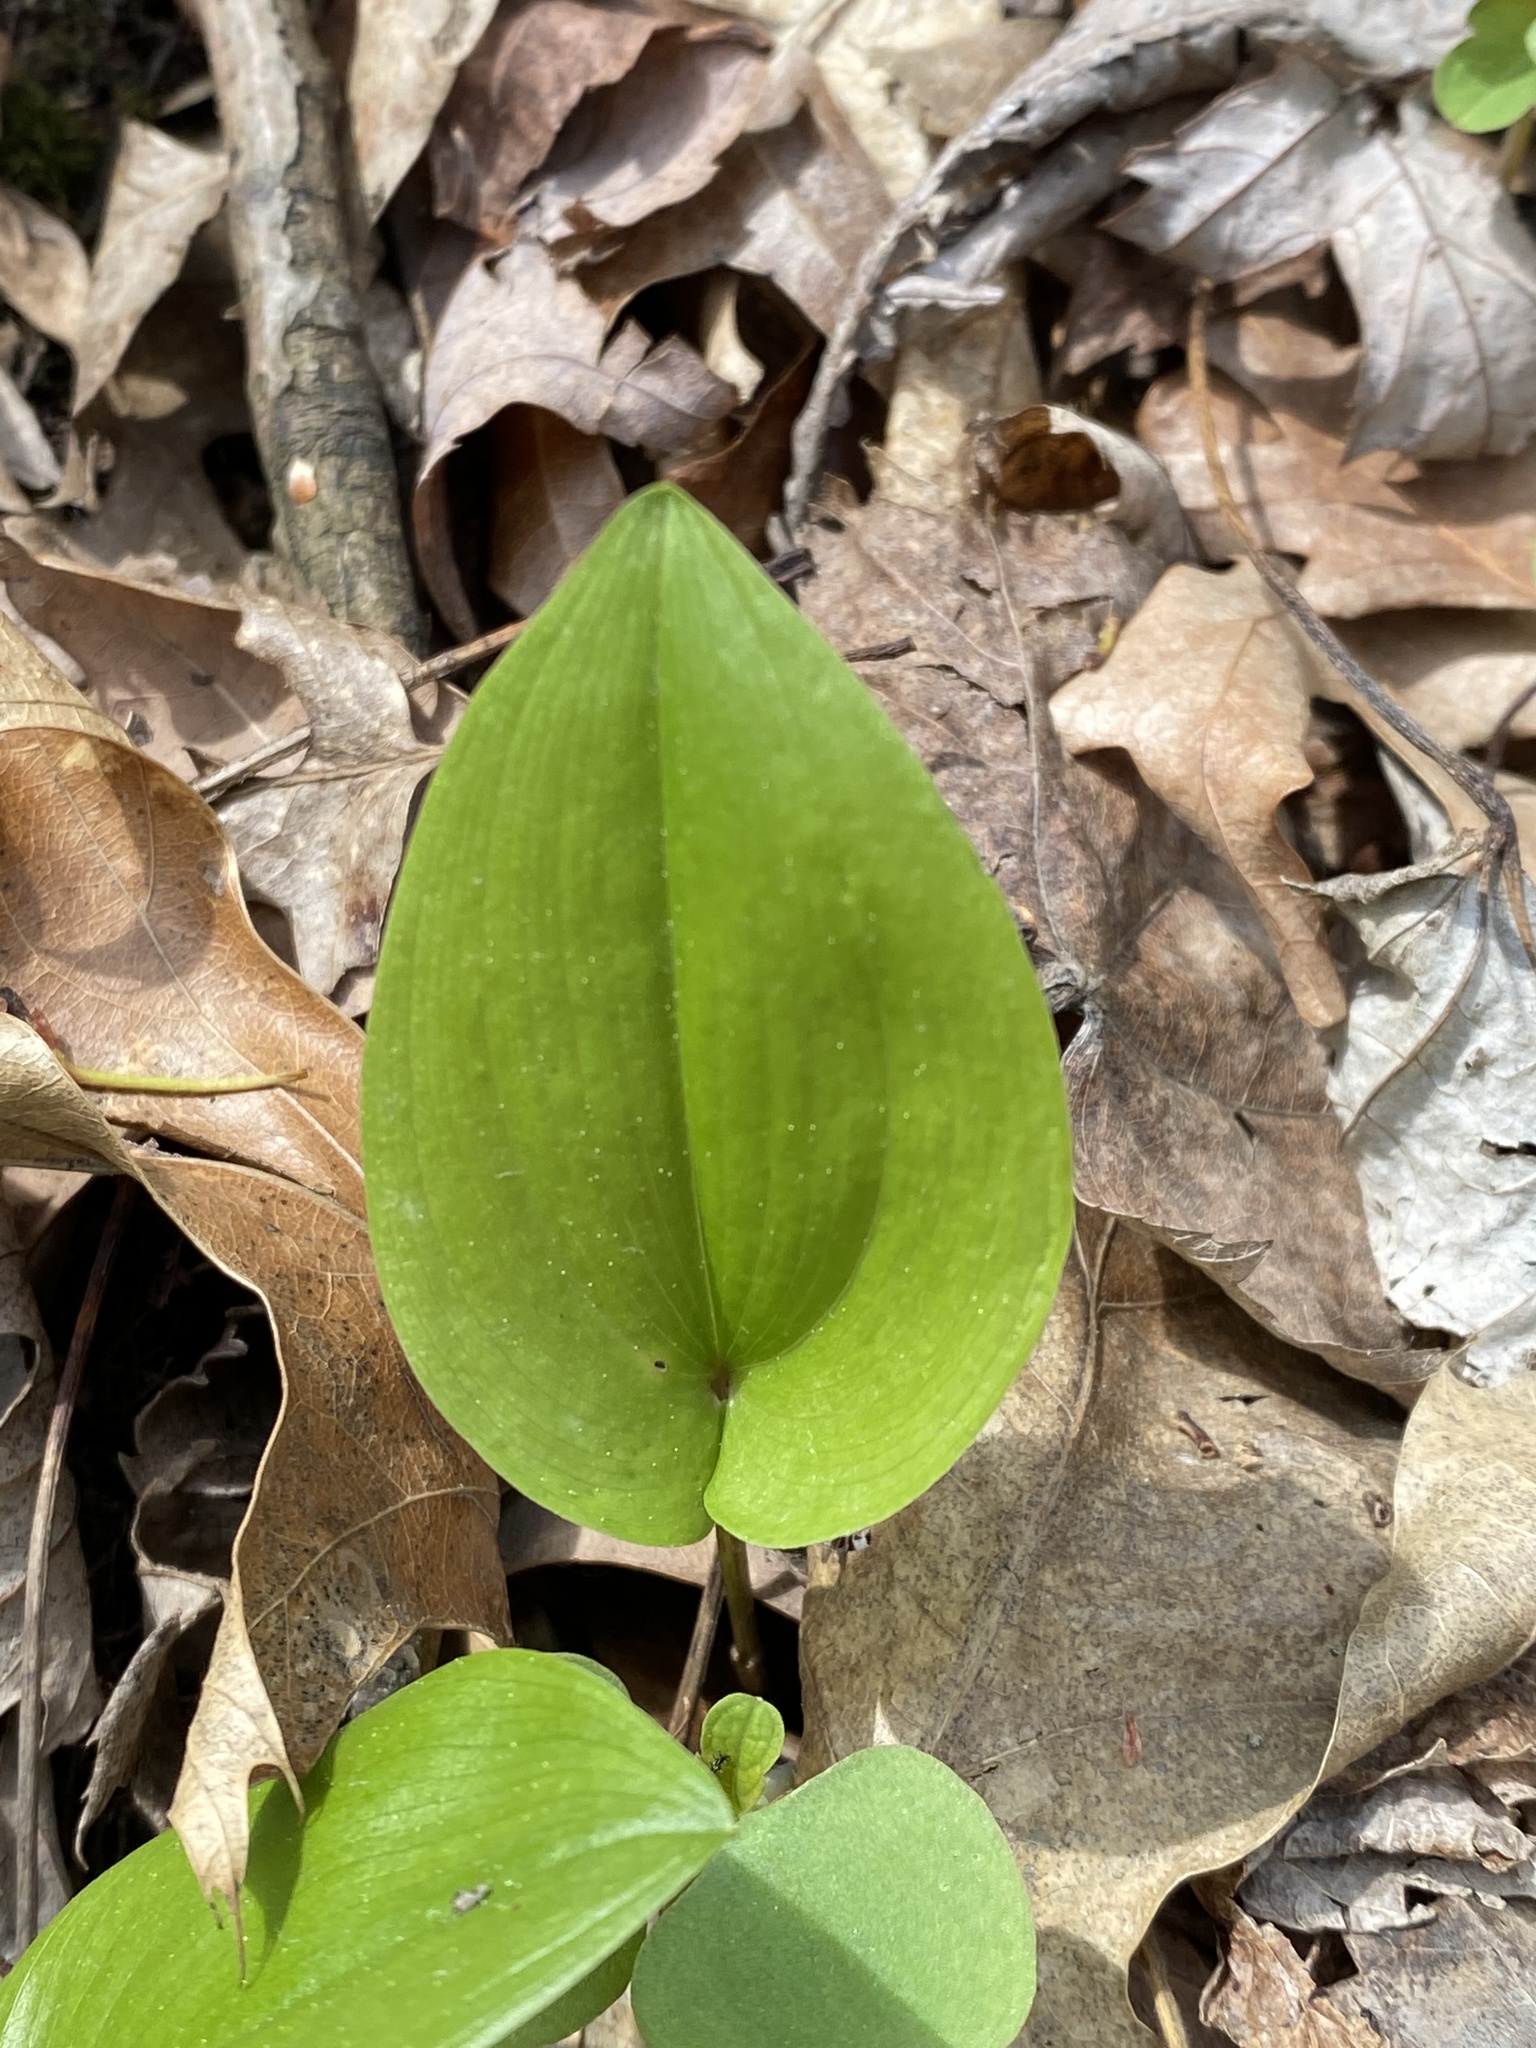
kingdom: Plantae
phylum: Tracheophyta
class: Liliopsida
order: Asparagales
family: Asparagaceae
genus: Maianthemum
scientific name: Maianthemum canadense
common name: False lily-of-the-valley
